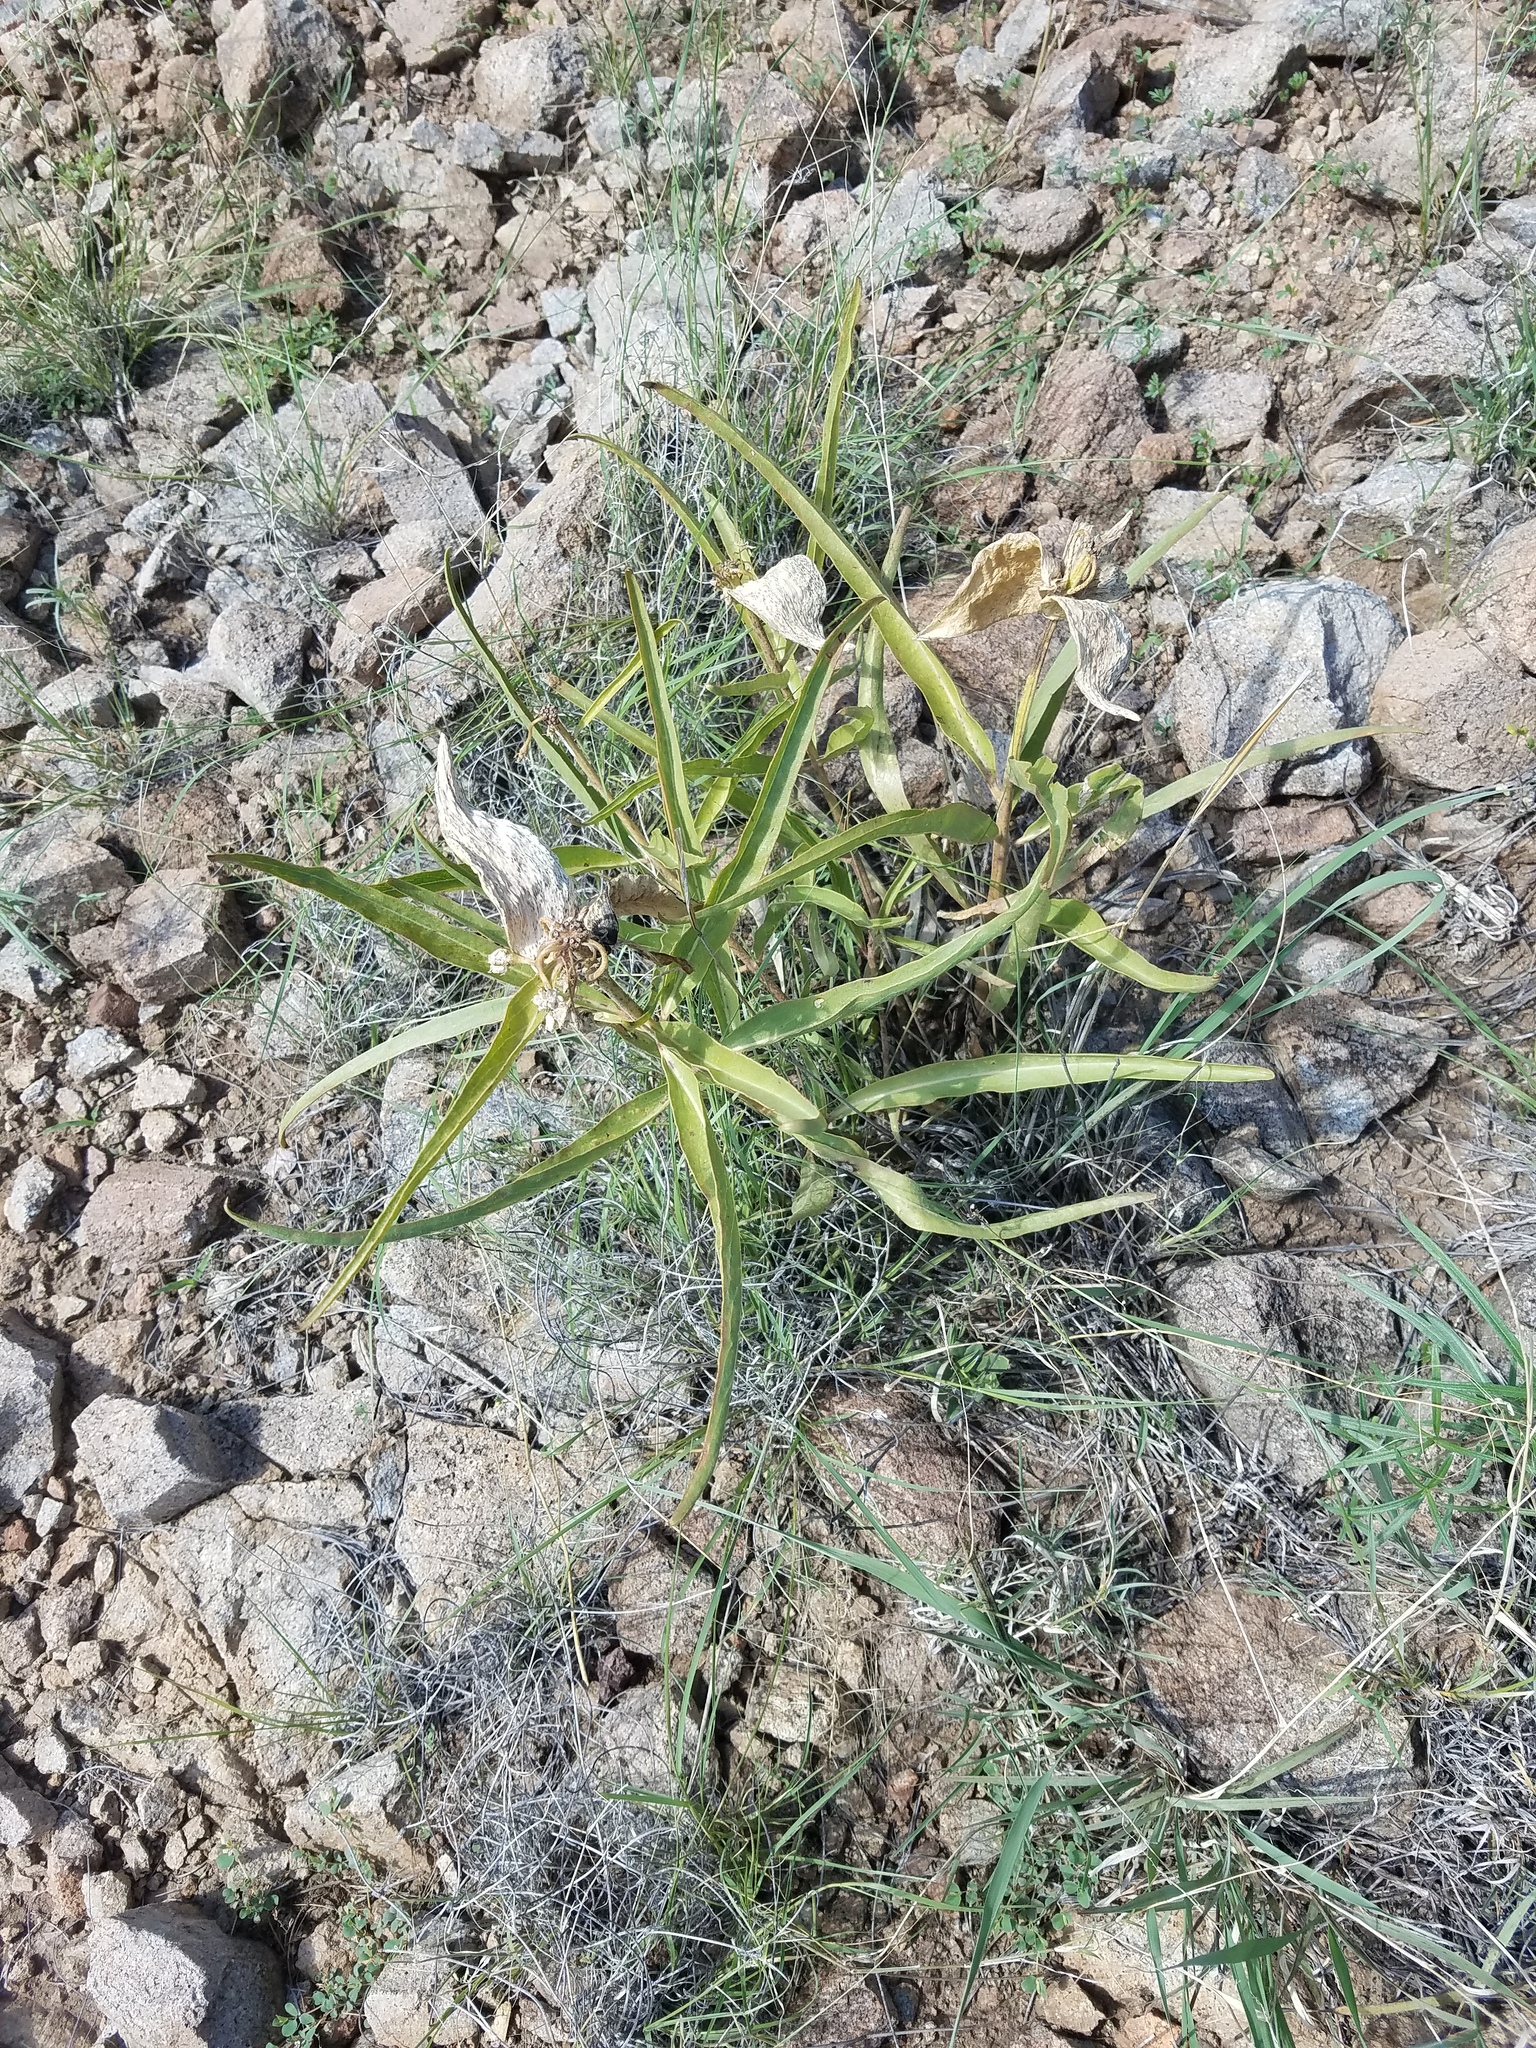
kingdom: Plantae
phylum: Tracheophyta
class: Magnoliopsida
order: Gentianales
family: Apocynaceae
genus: Asclepias
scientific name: Asclepias asperula
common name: Antelope horns
